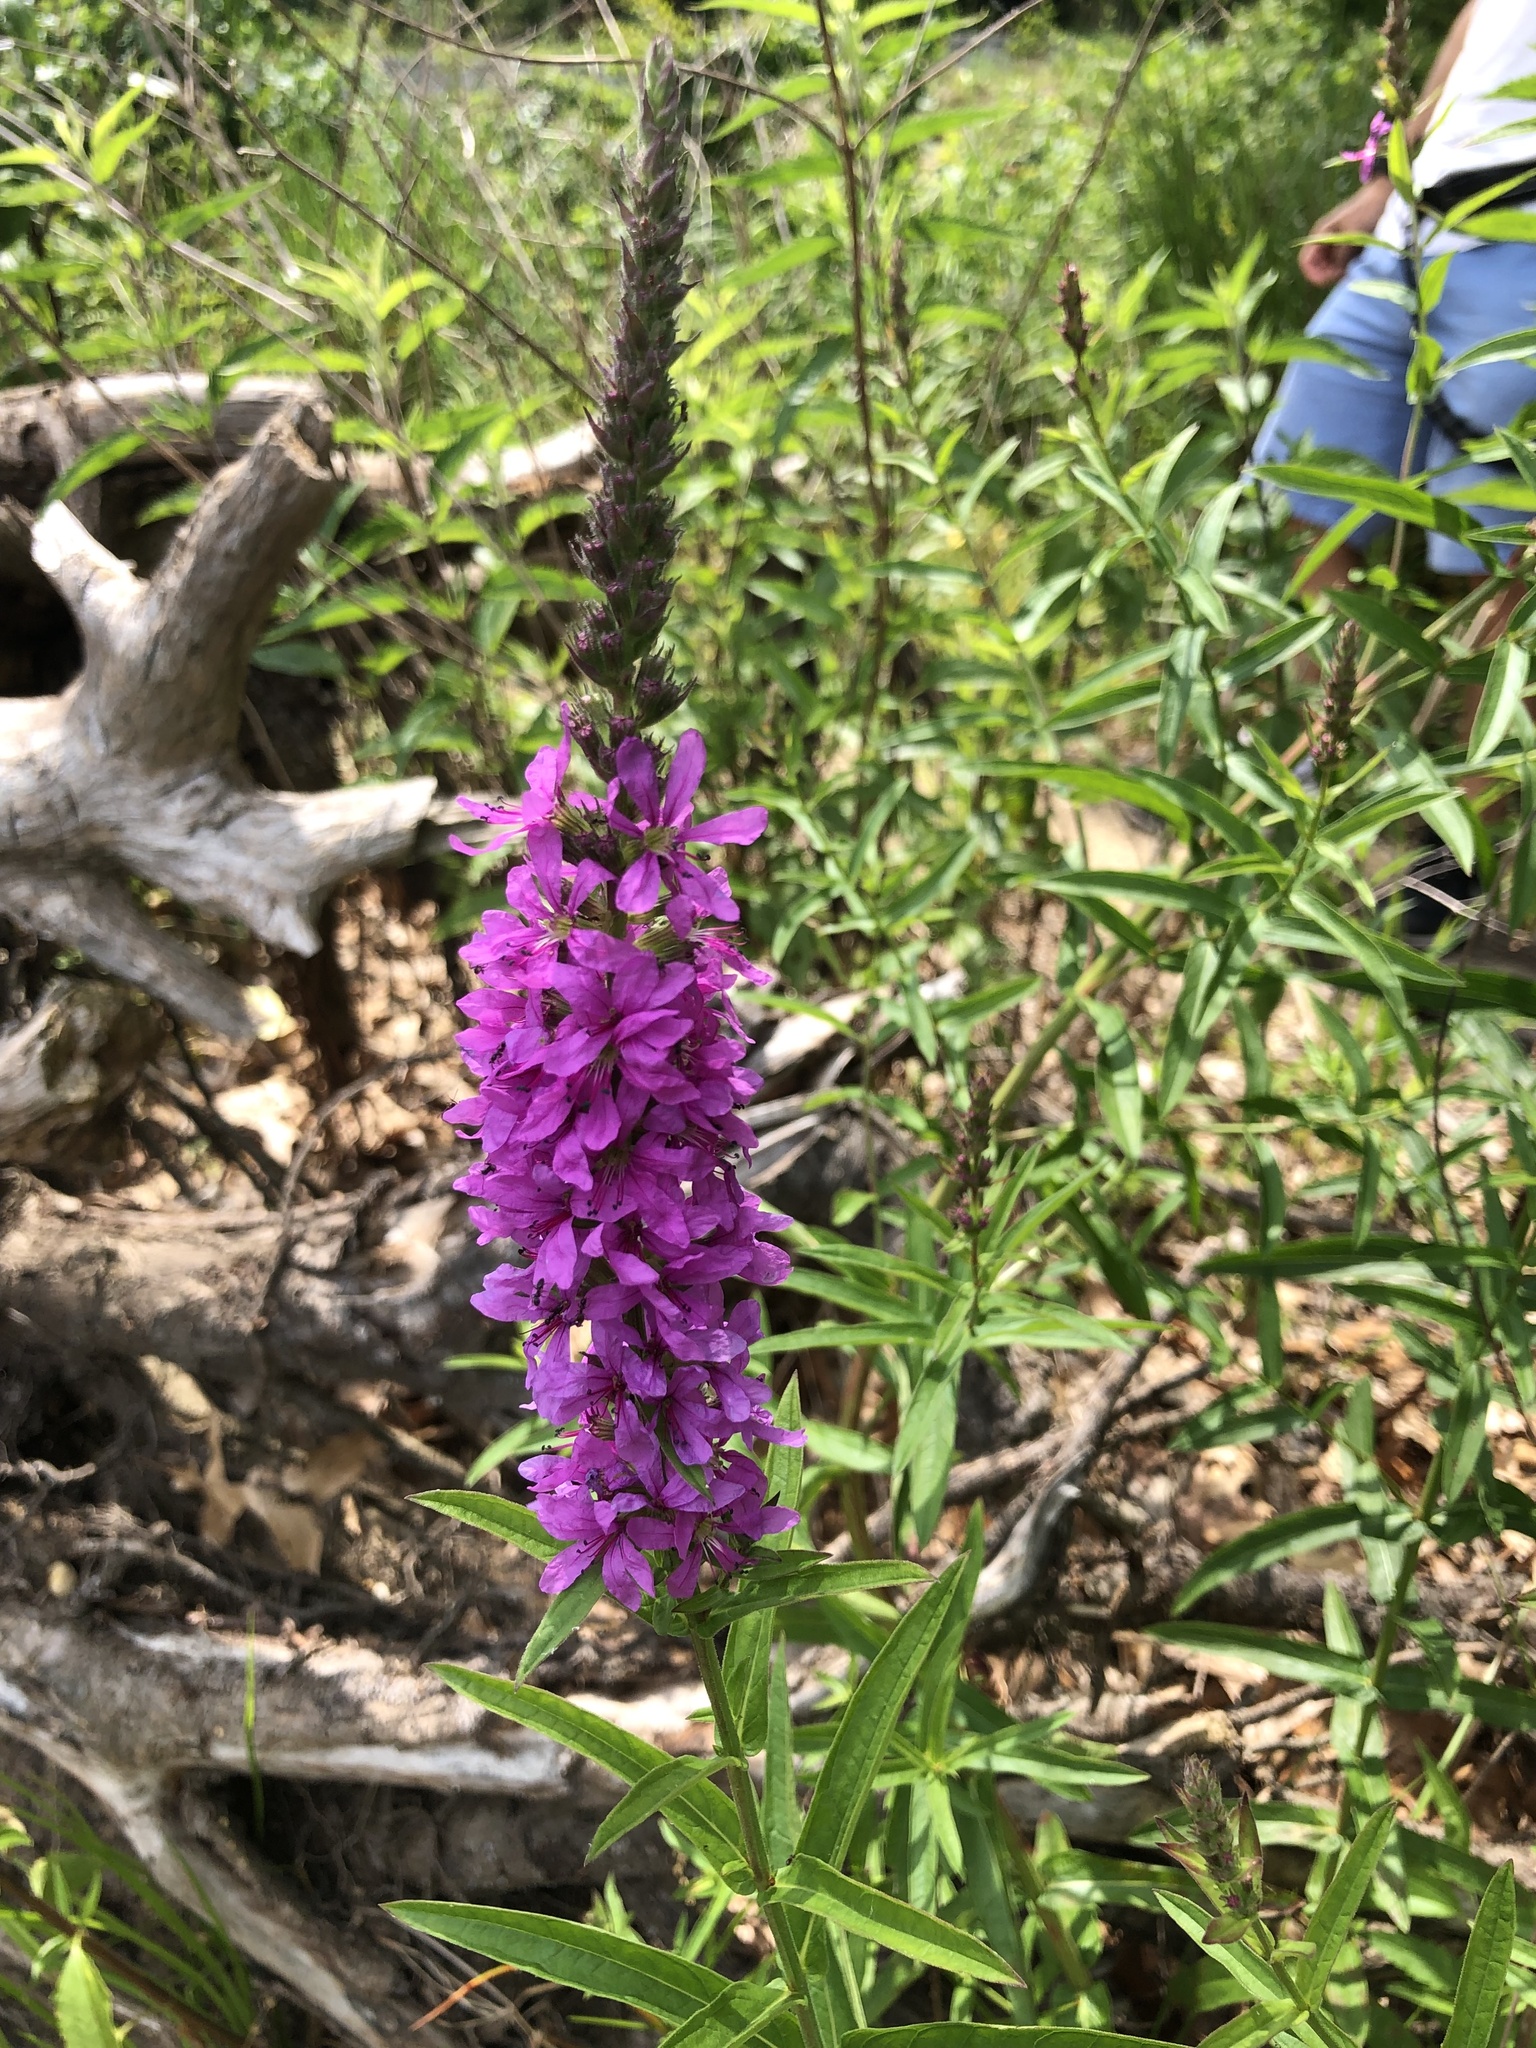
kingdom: Plantae
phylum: Tracheophyta
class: Magnoliopsida
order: Myrtales
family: Lythraceae
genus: Lythrum
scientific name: Lythrum salicaria
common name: Purple loosestrife
